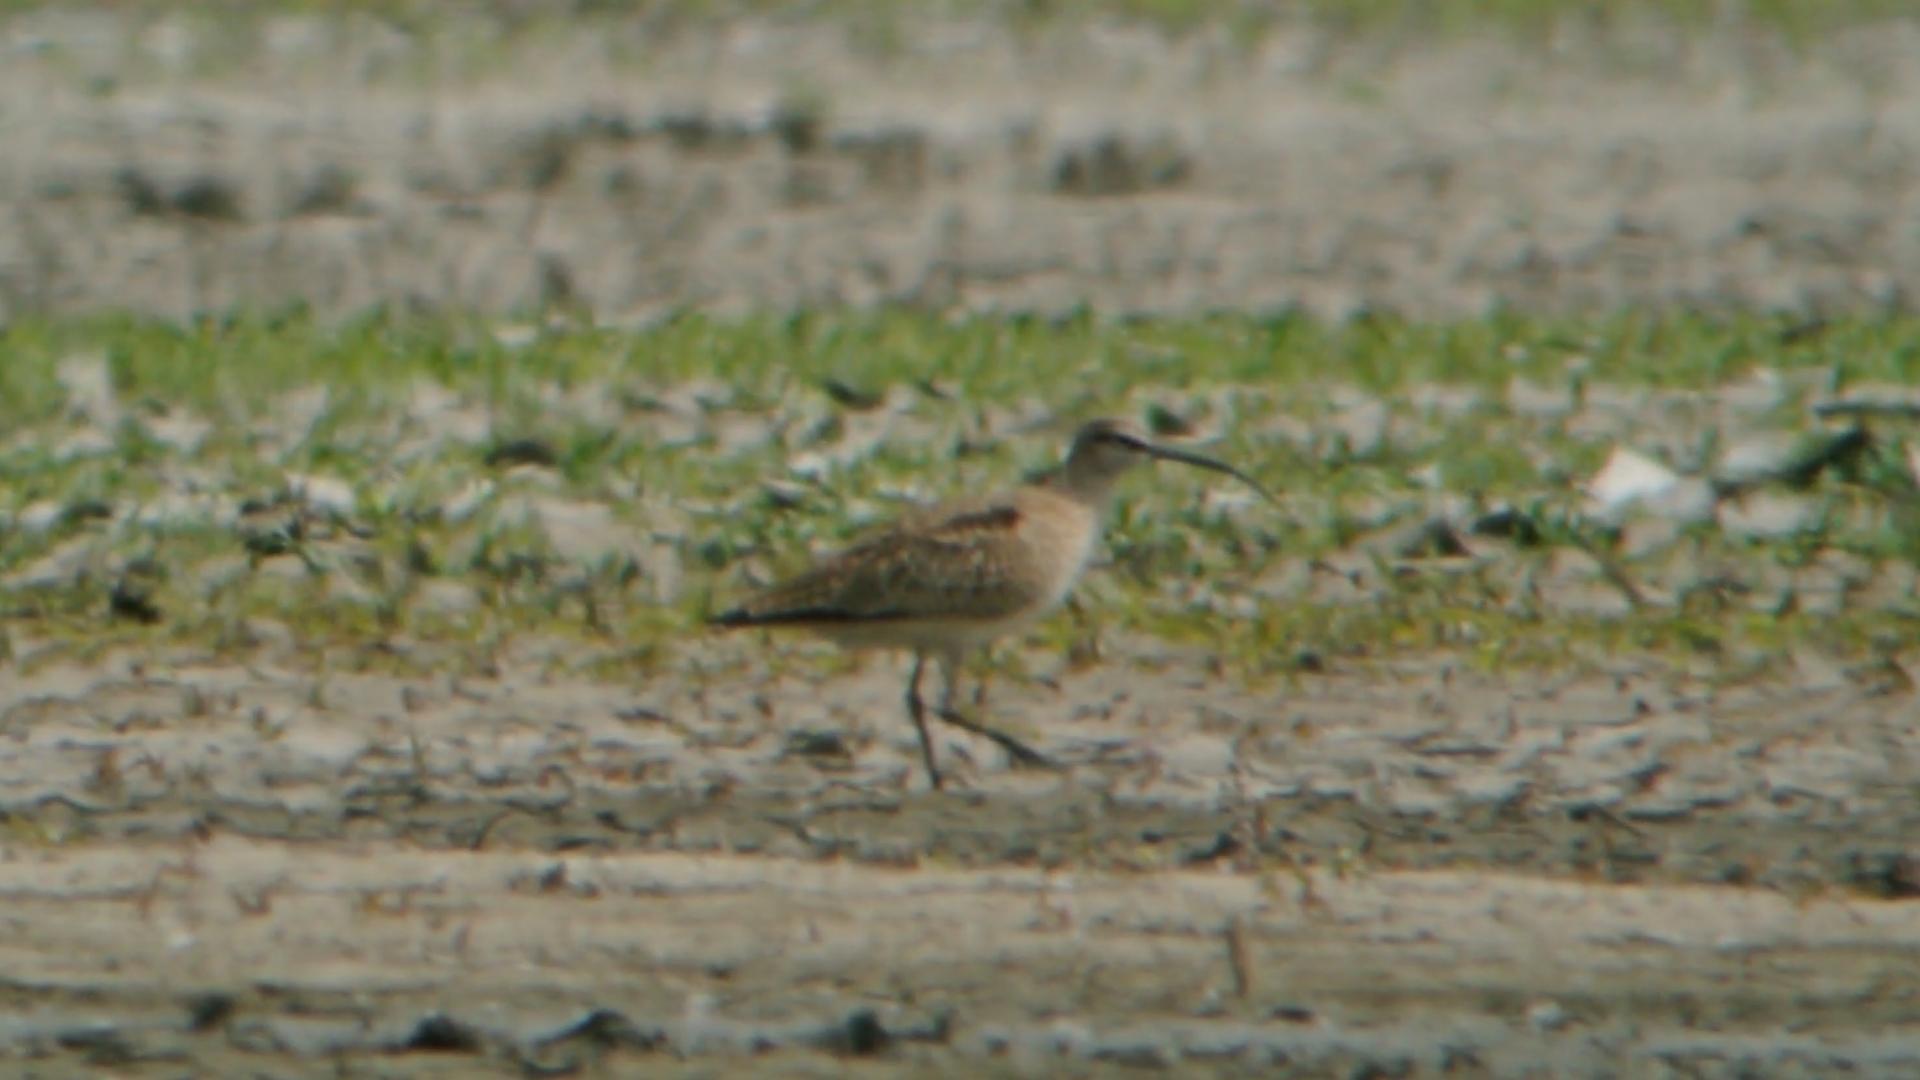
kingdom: Animalia
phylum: Chordata
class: Aves
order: Charadriiformes
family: Scolopacidae
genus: Numenius
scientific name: Numenius phaeopus
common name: Whimbrel
